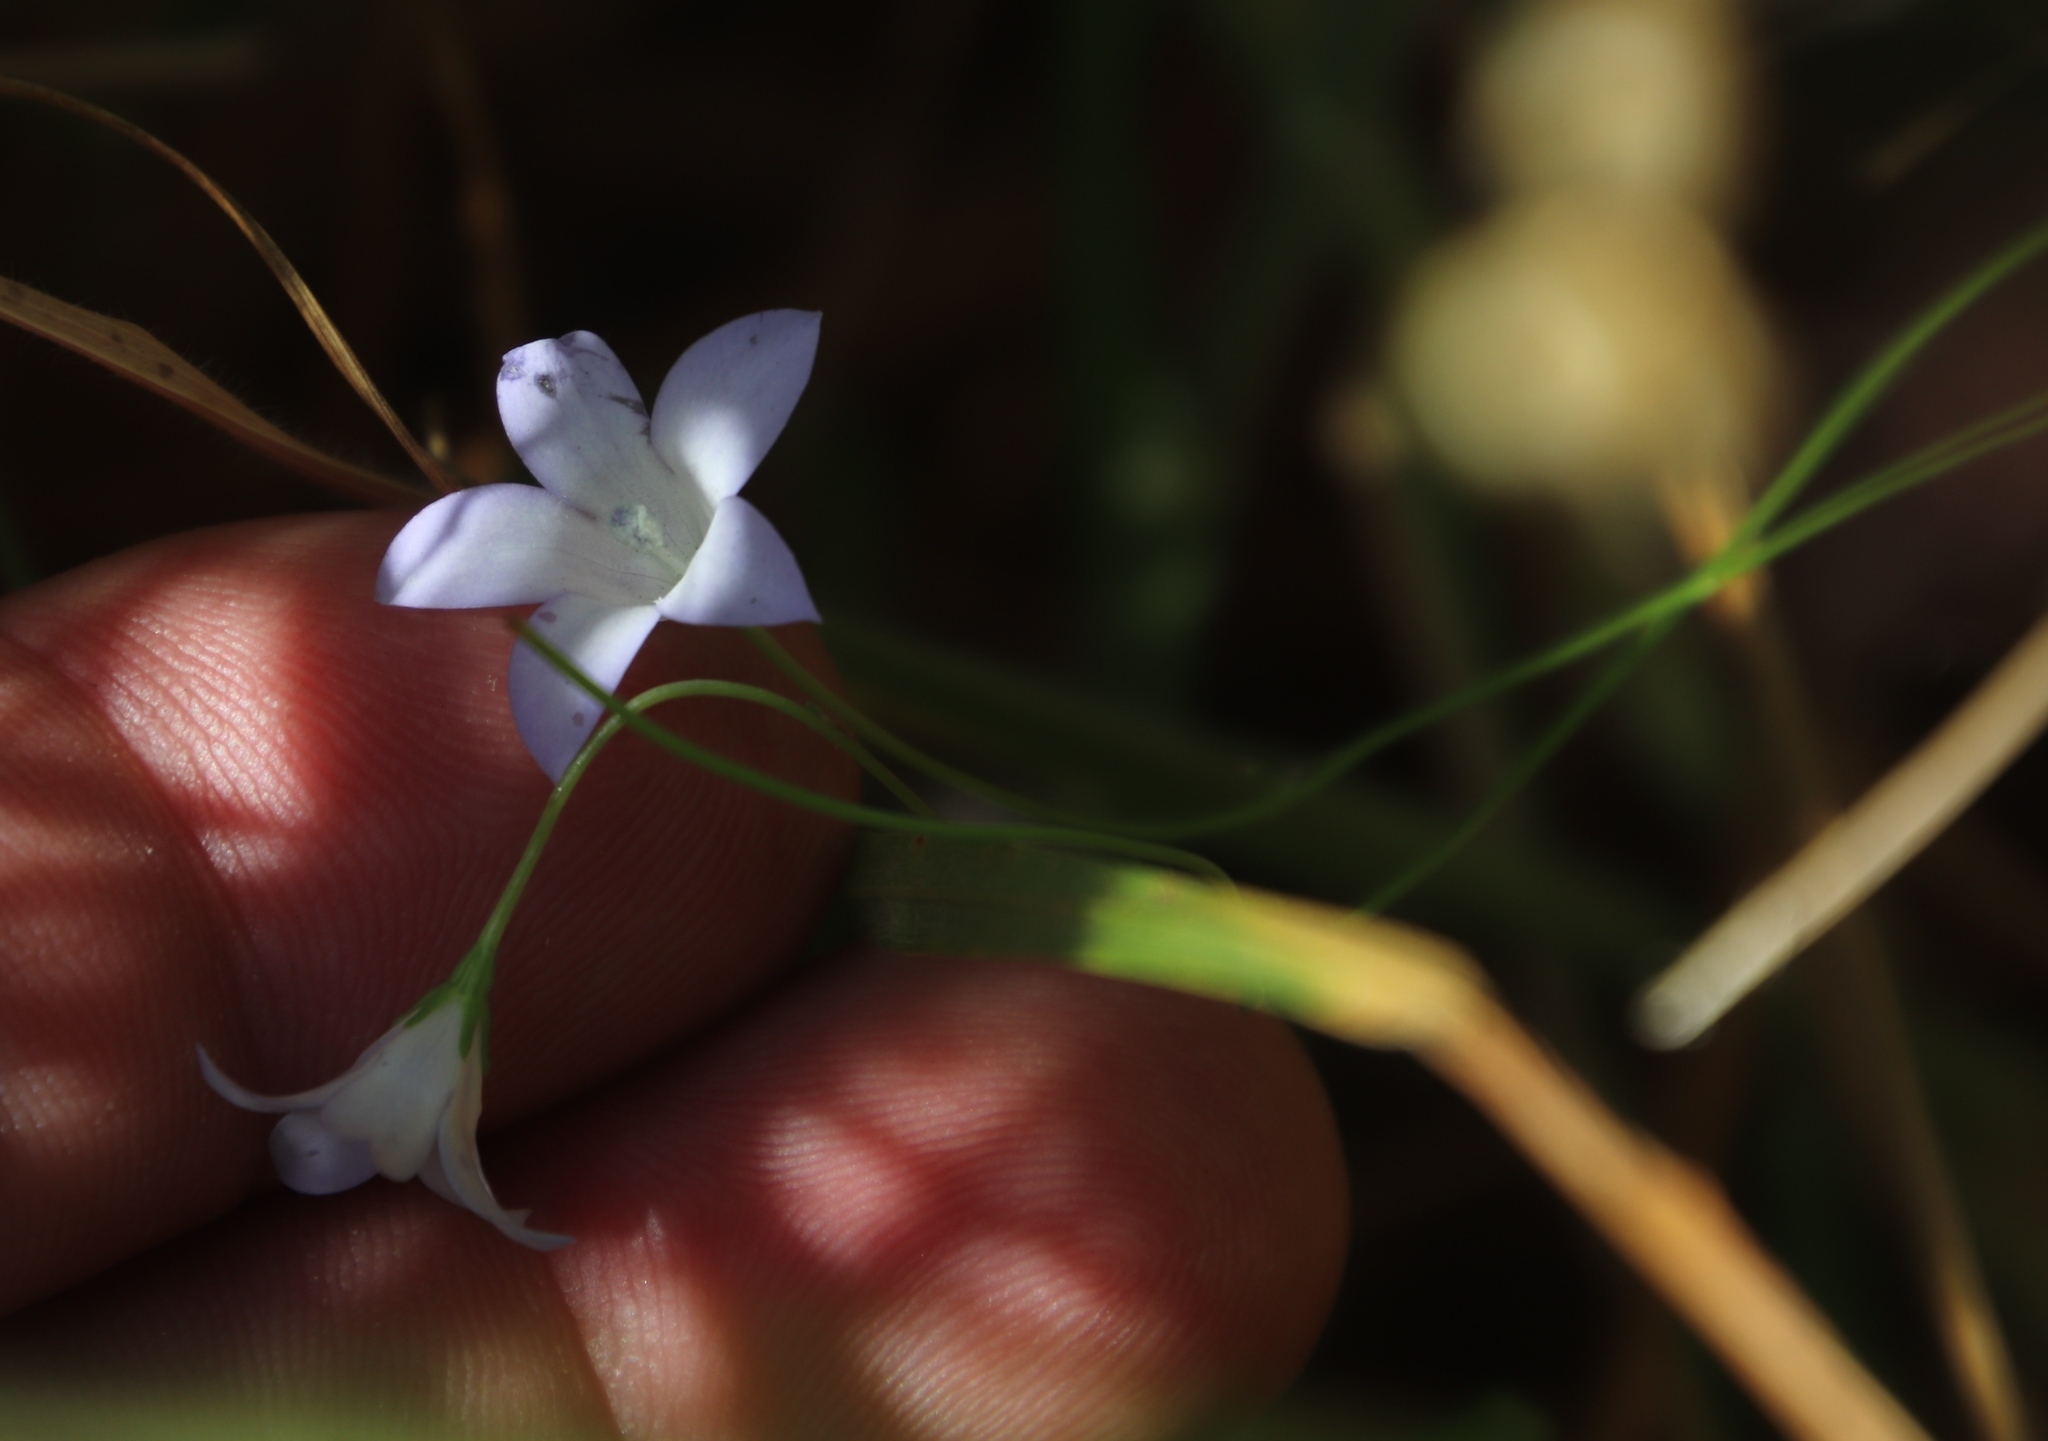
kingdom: Plantae
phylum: Tracheophyta
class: Magnoliopsida
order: Asterales
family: Campanulaceae
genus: Wahlenbergia
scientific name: Wahlenbergia obovata
